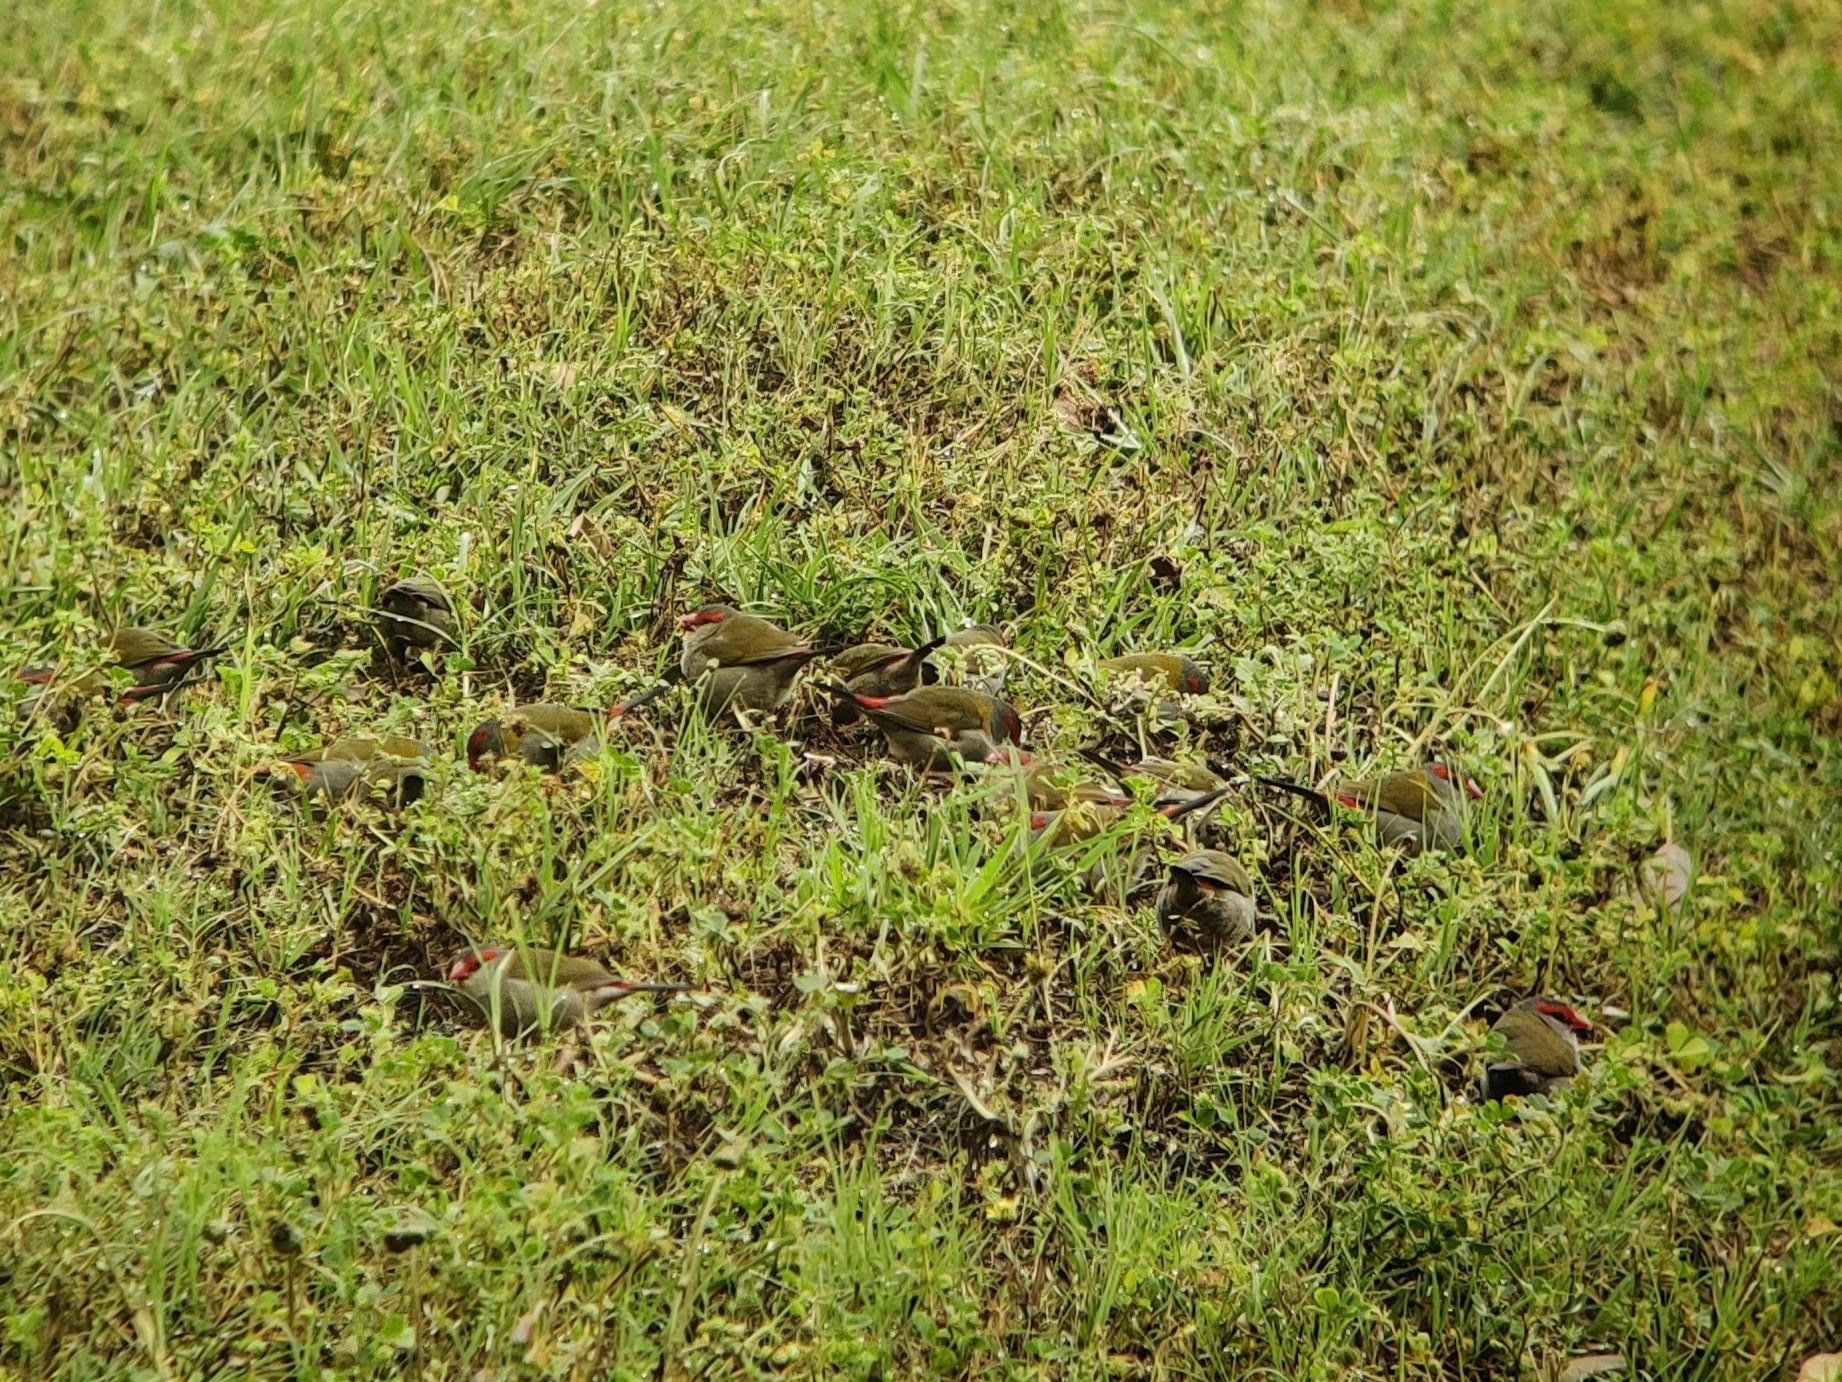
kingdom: Animalia
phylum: Chordata
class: Aves
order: Passeriformes
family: Estrildidae
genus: Neochmia
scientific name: Neochmia temporalis
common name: Red-browed finch
